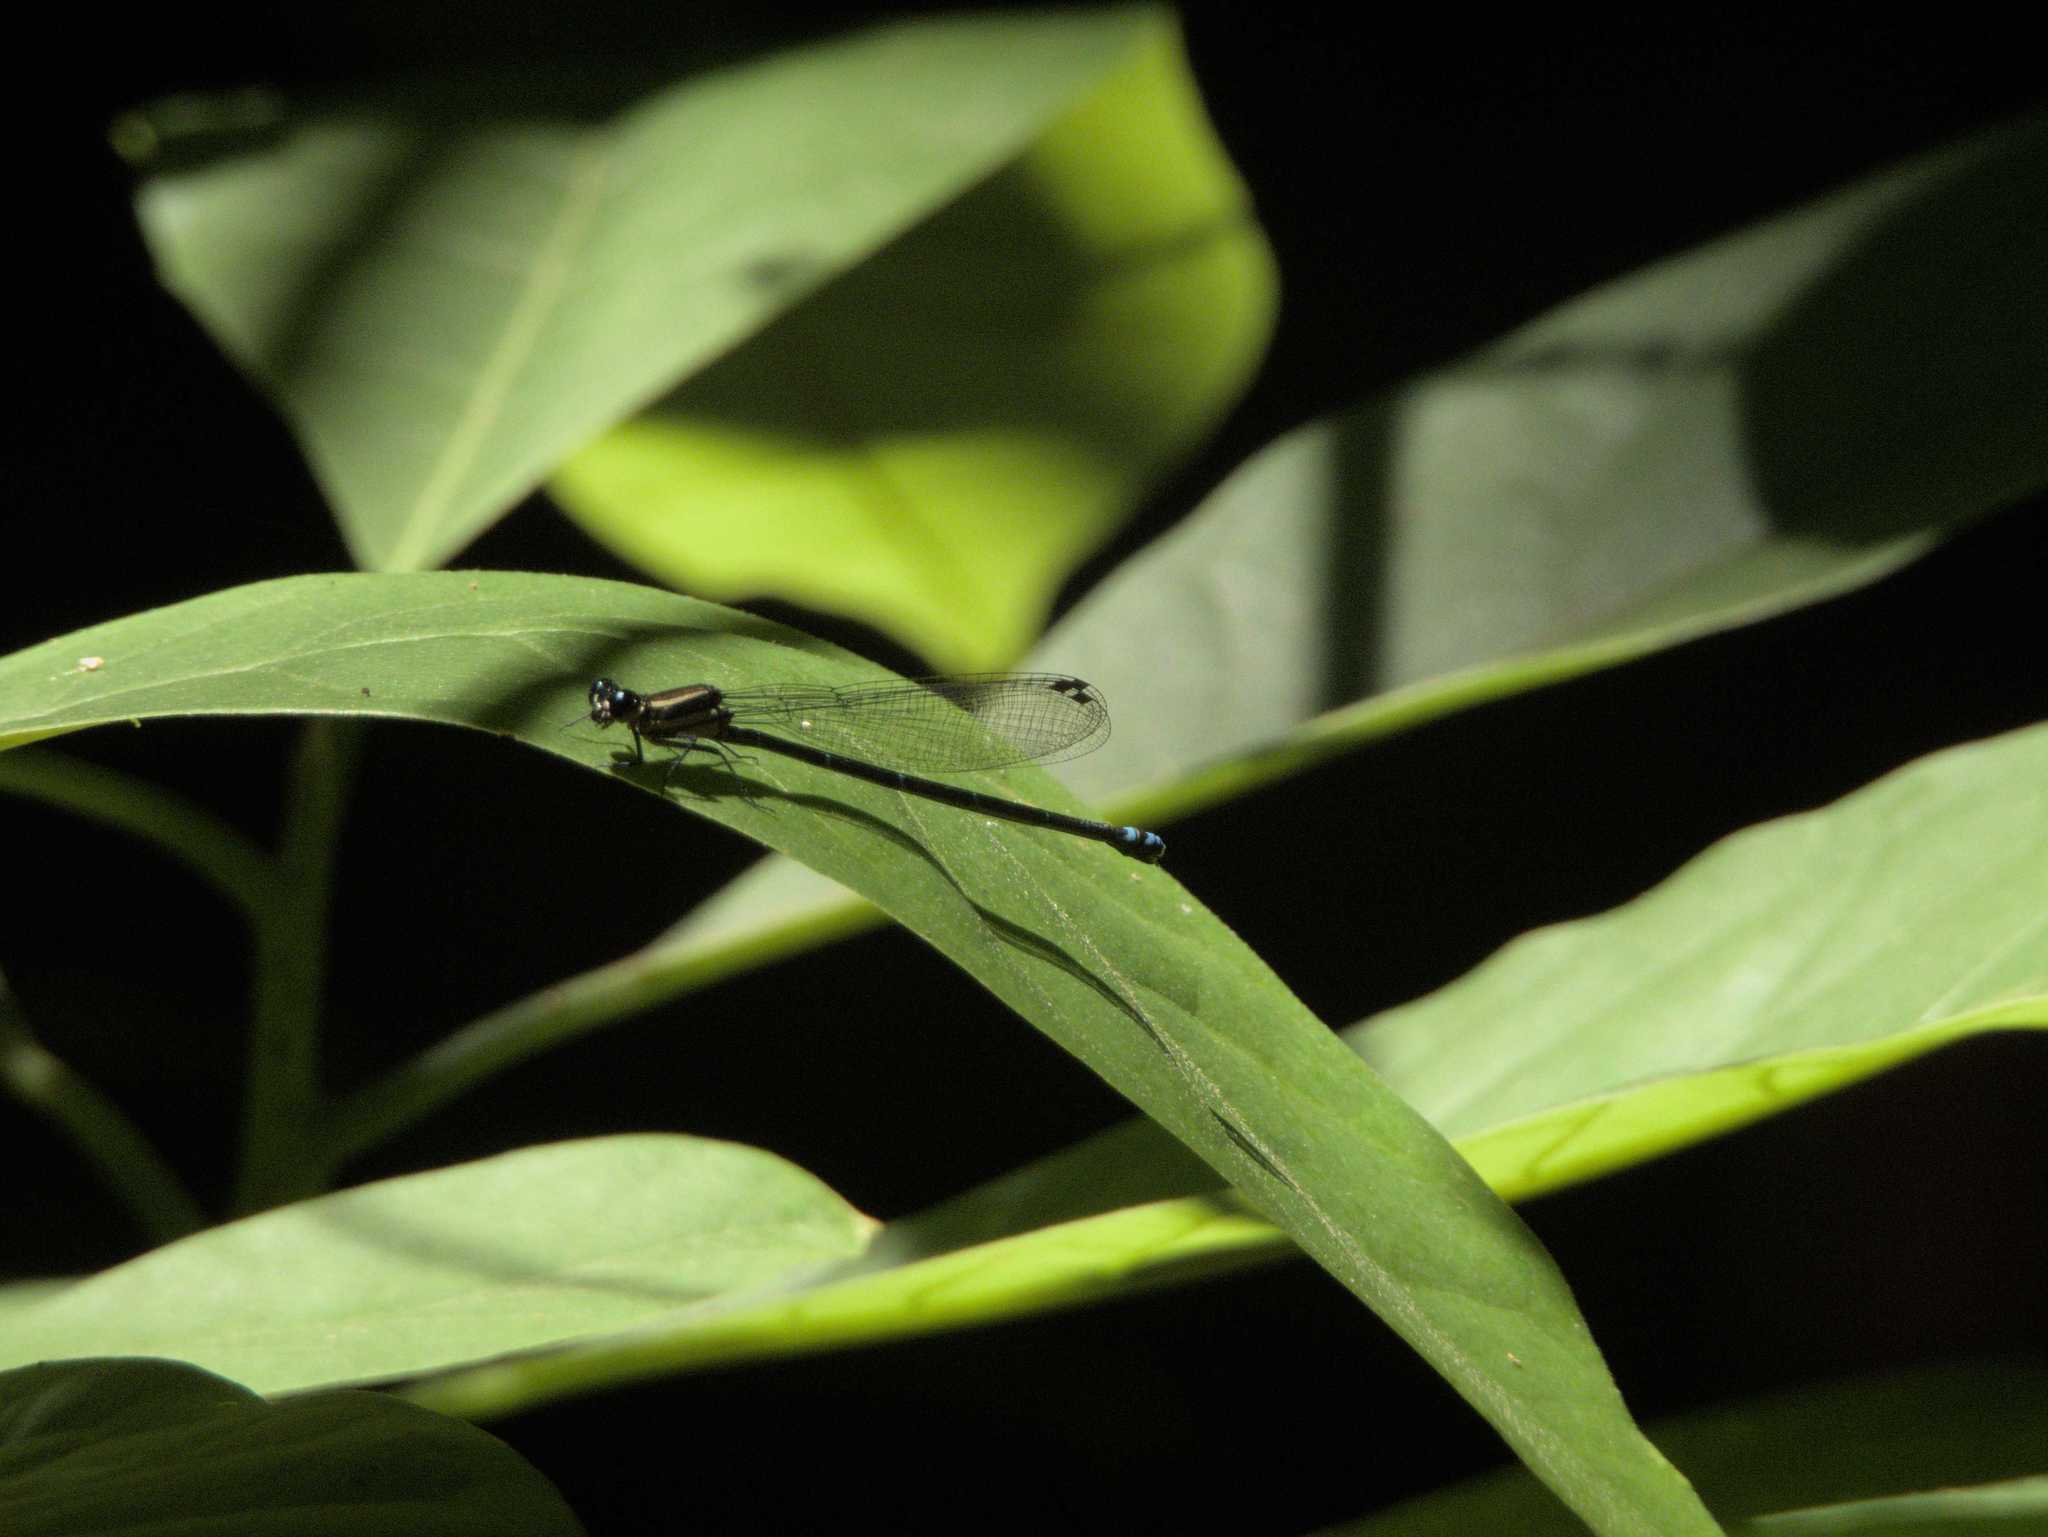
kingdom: Animalia
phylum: Arthropoda
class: Insecta
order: Odonata
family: Coenagrionidae
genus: Argia
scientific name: Argia oculata
